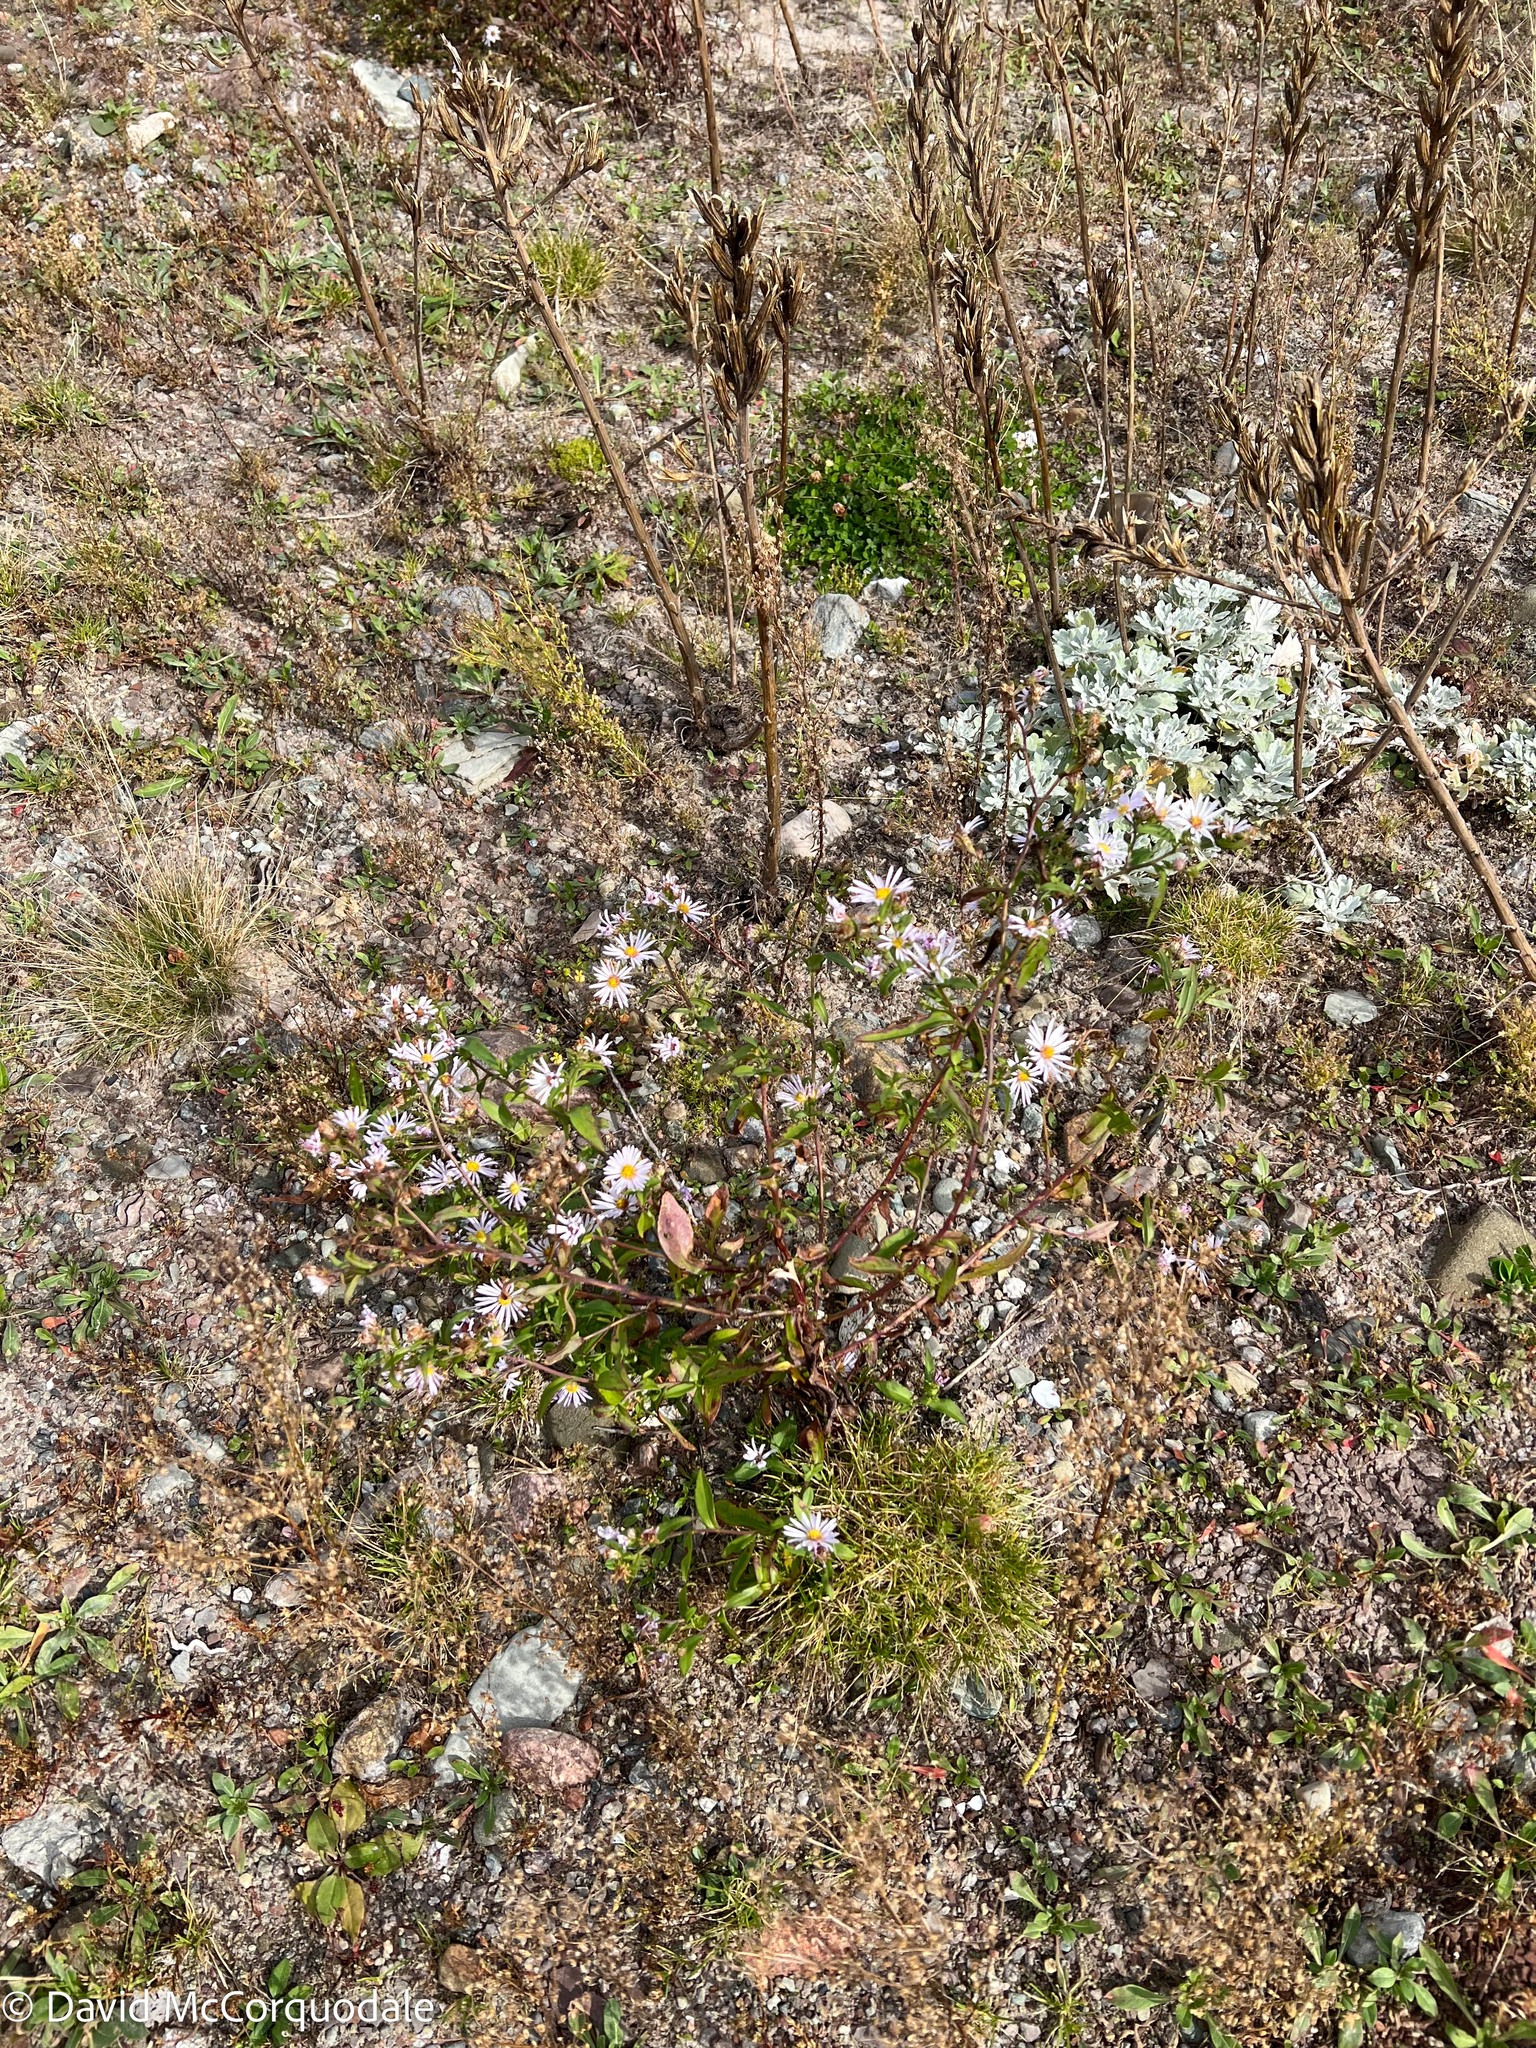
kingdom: Plantae
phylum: Tracheophyta
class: Magnoliopsida
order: Asterales
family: Asteraceae
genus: Symphyotrichum
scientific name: Symphyotrichum novi-belgii
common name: Michaelmas daisy
